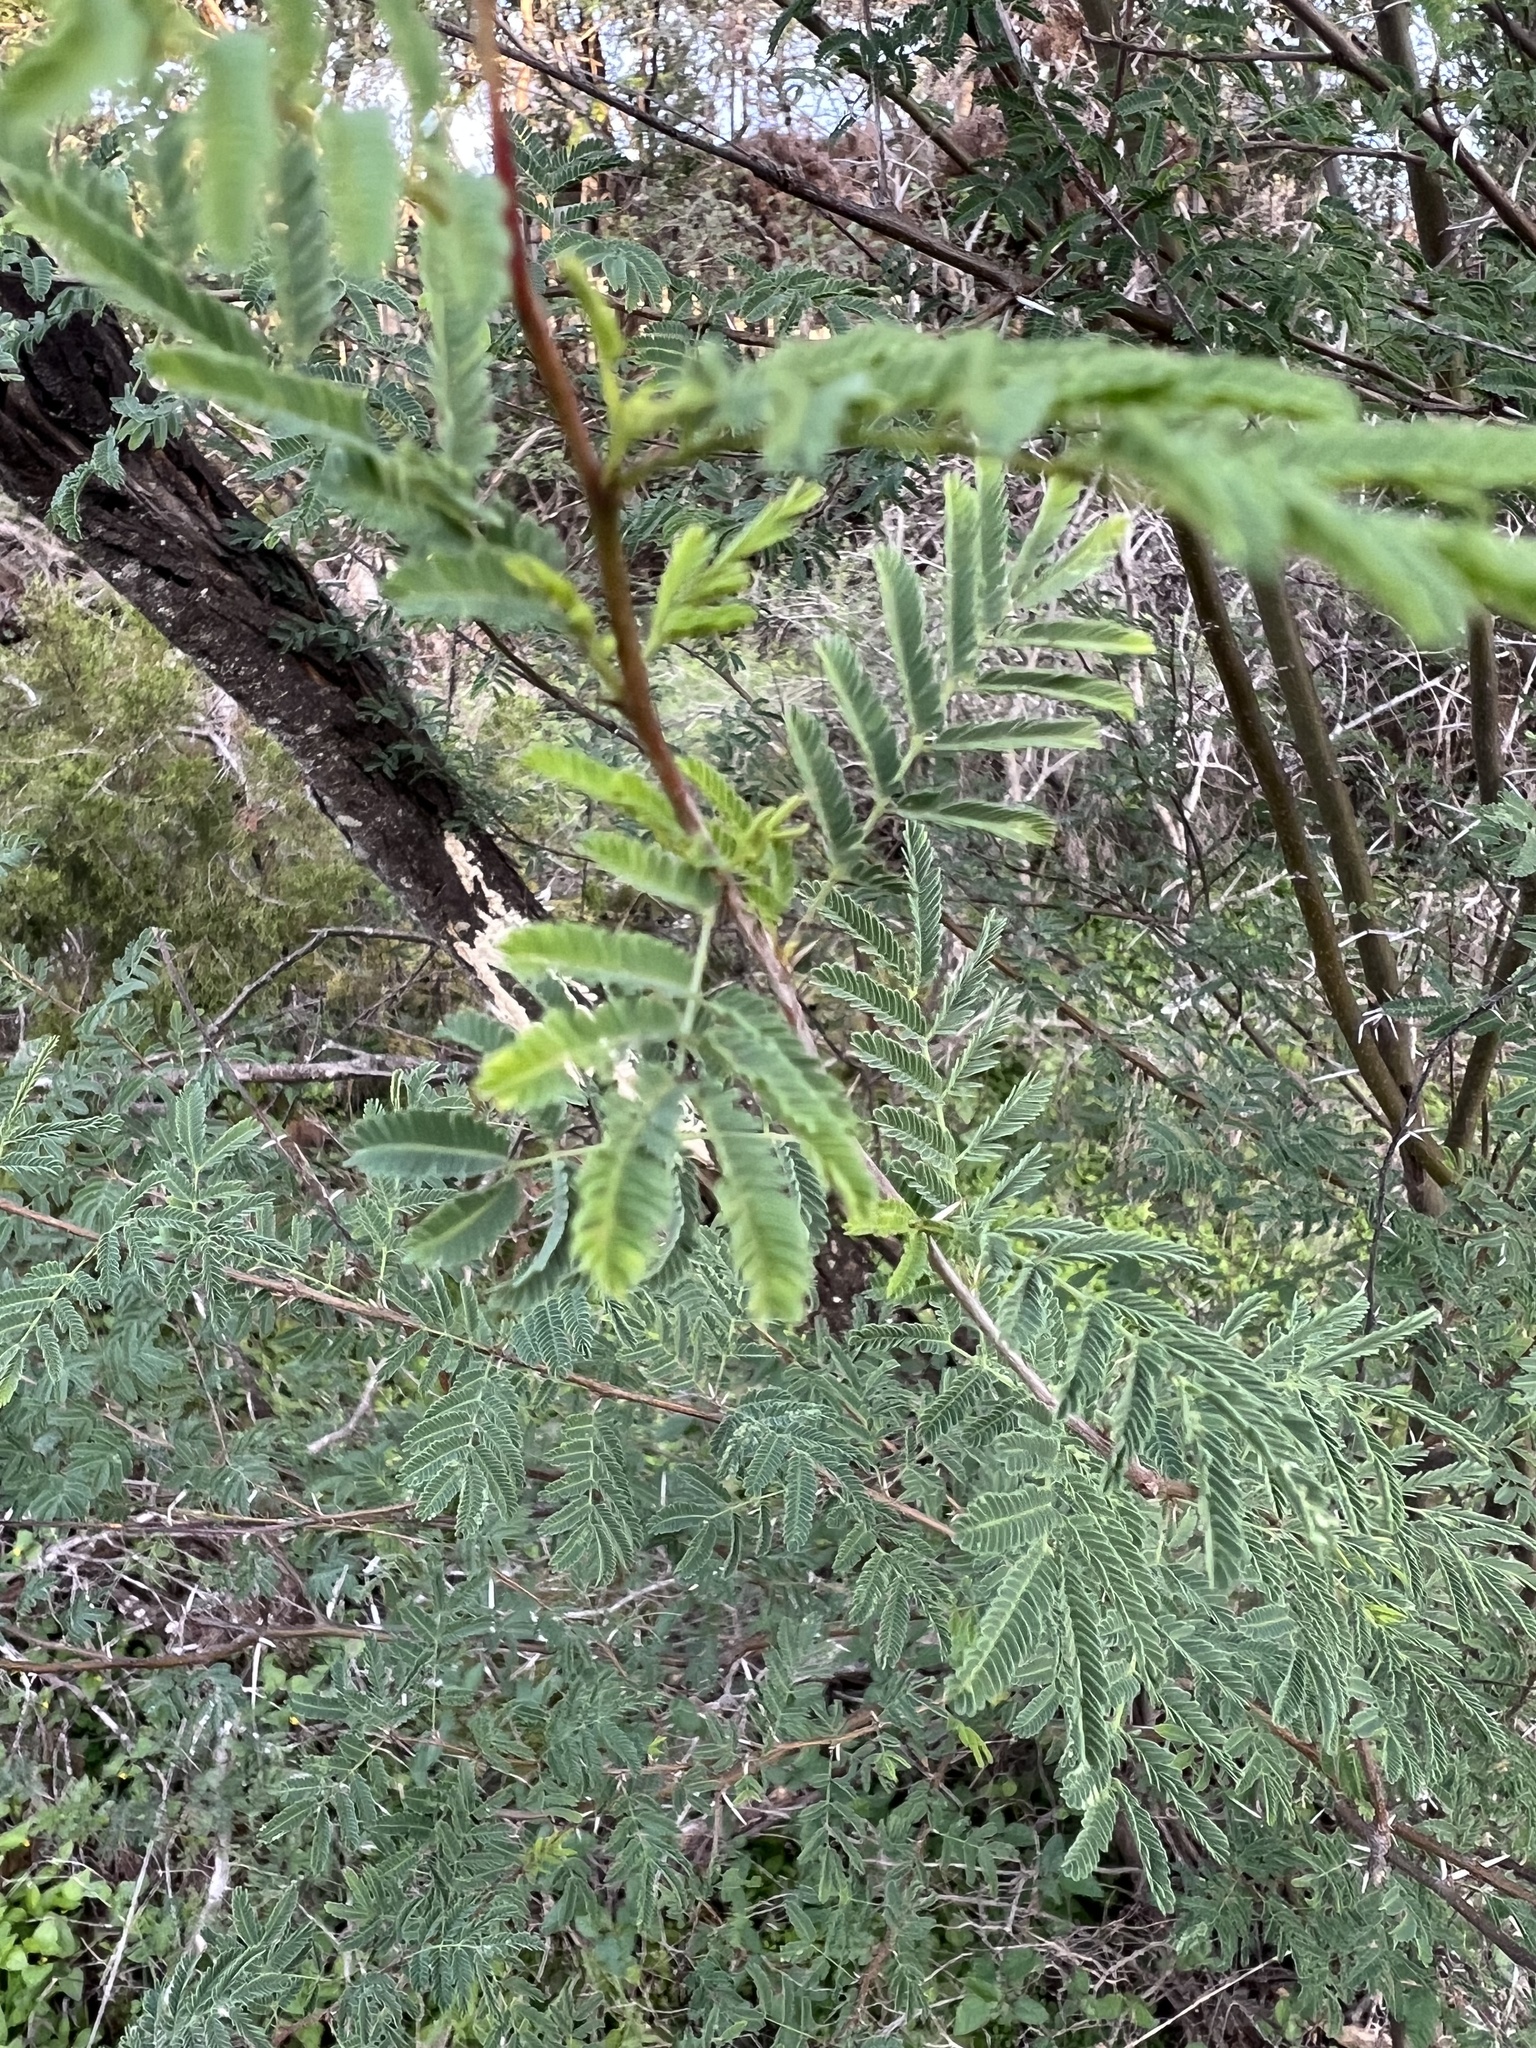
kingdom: Plantae
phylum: Tracheophyta
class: Magnoliopsida
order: Fabales
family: Fabaceae
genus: Vachellia
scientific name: Vachellia farnesiana
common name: Sweet acacia
